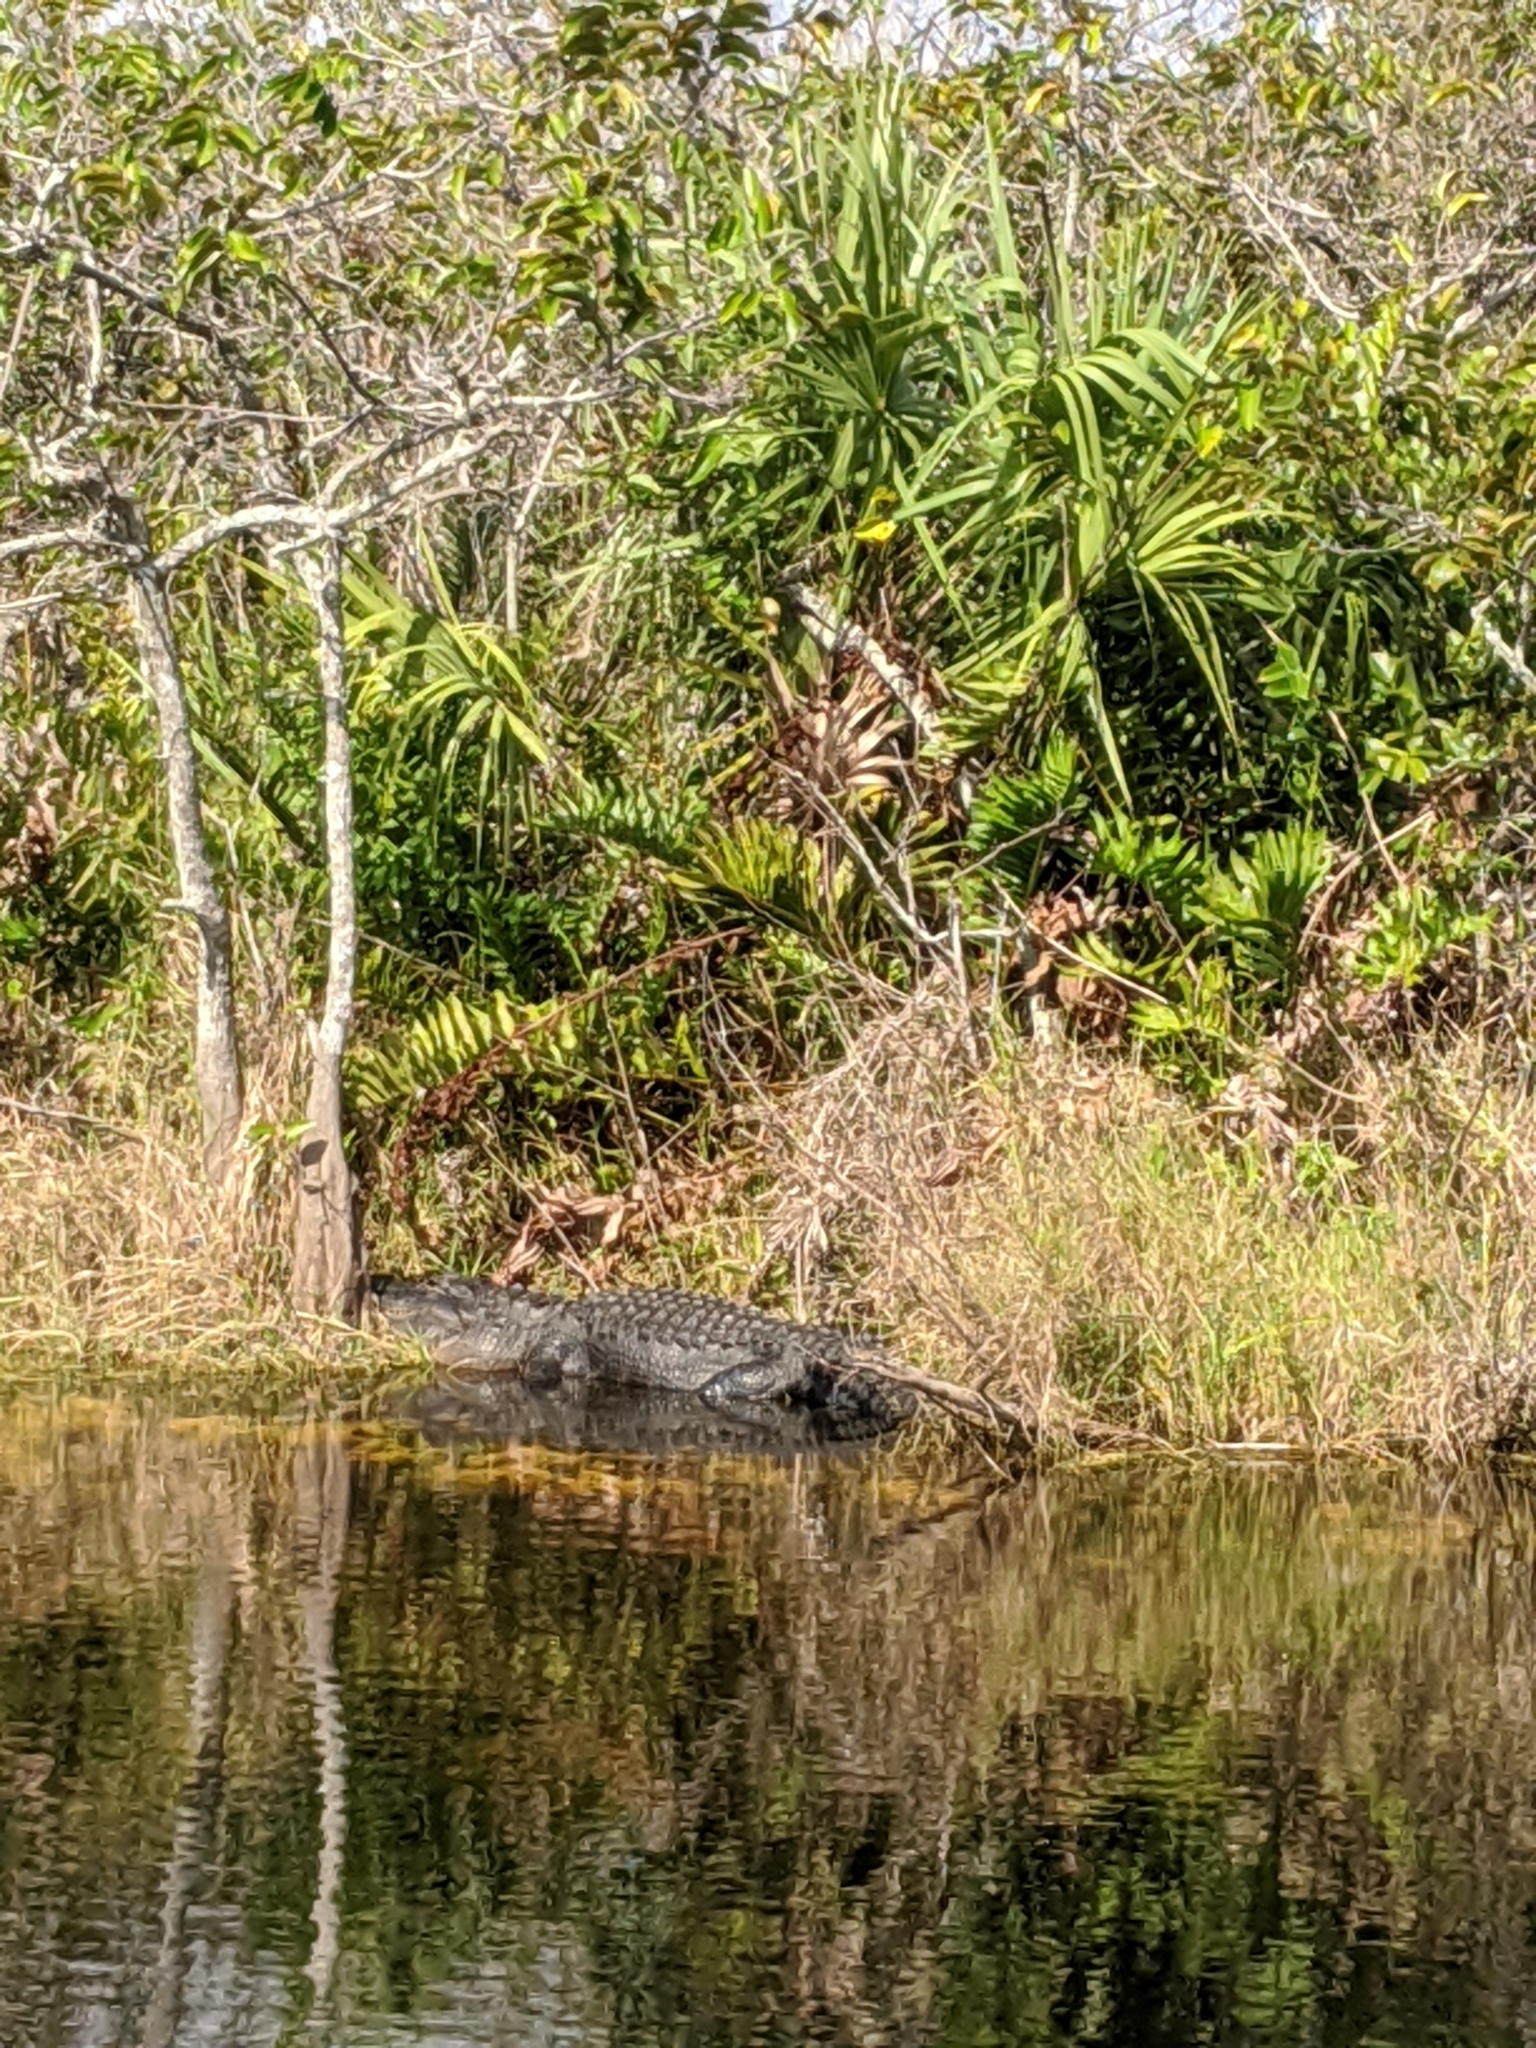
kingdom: Animalia
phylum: Chordata
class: Crocodylia
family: Alligatoridae
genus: Alligator
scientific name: Alligator mississippiensis
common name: American alligator
